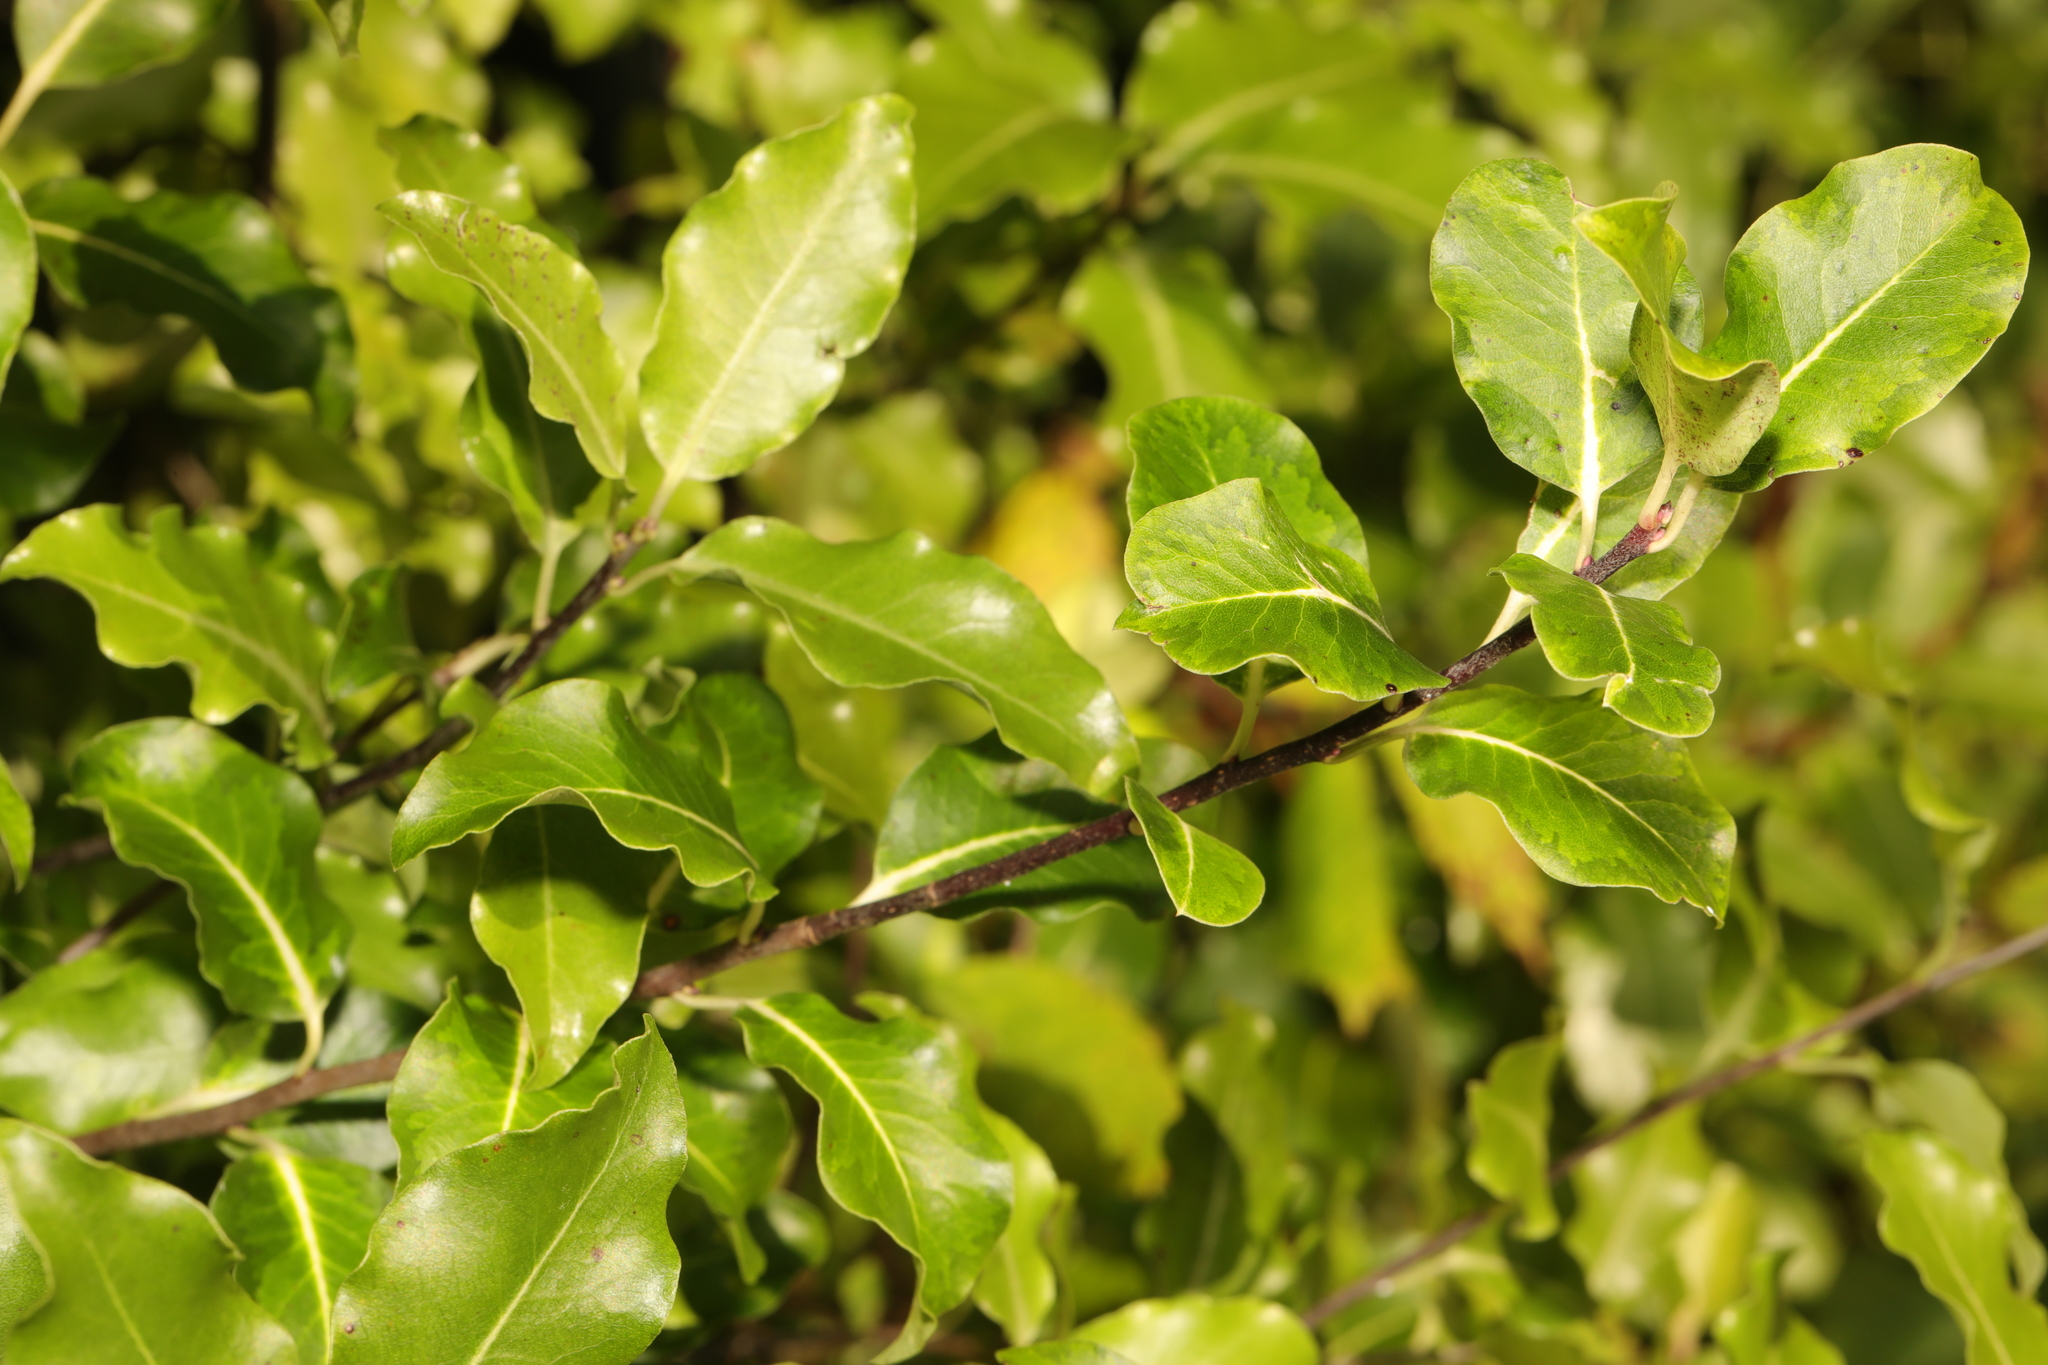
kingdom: Plantae
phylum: Tracheophyta
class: Magnoliopsida
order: Apiales
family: Pittosporaceae
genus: Pittosporum
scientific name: Pittosporum tenuifolium
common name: Kohuhu
